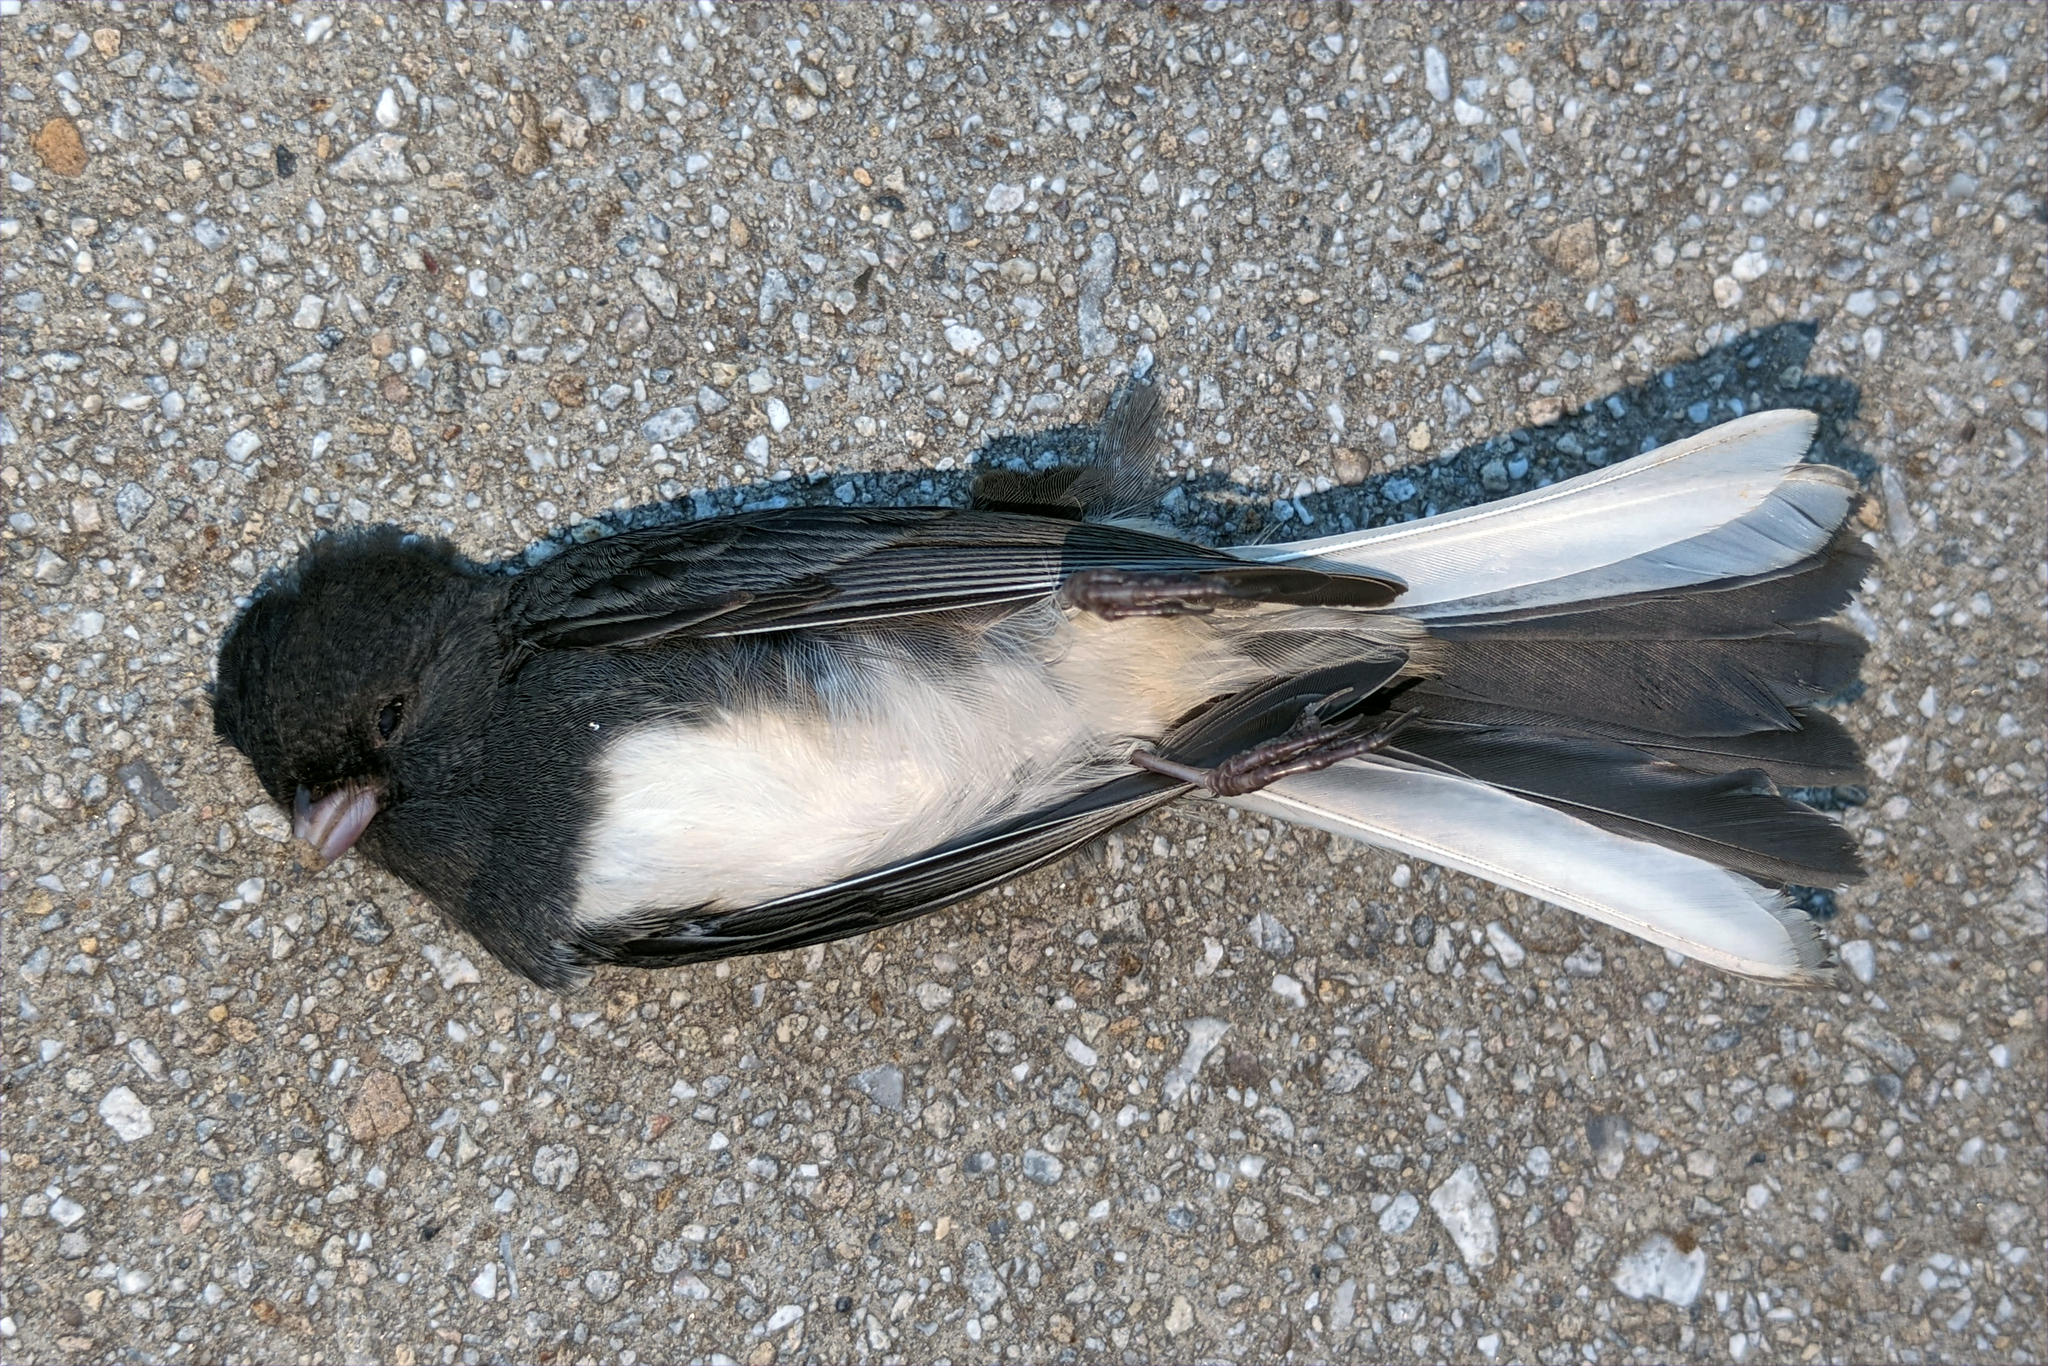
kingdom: Animalia
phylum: Chordata
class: Aves
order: Passeriformes
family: Passerellidae
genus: Junco
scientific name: Junco hyemalis
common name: Dark-eyed junco
